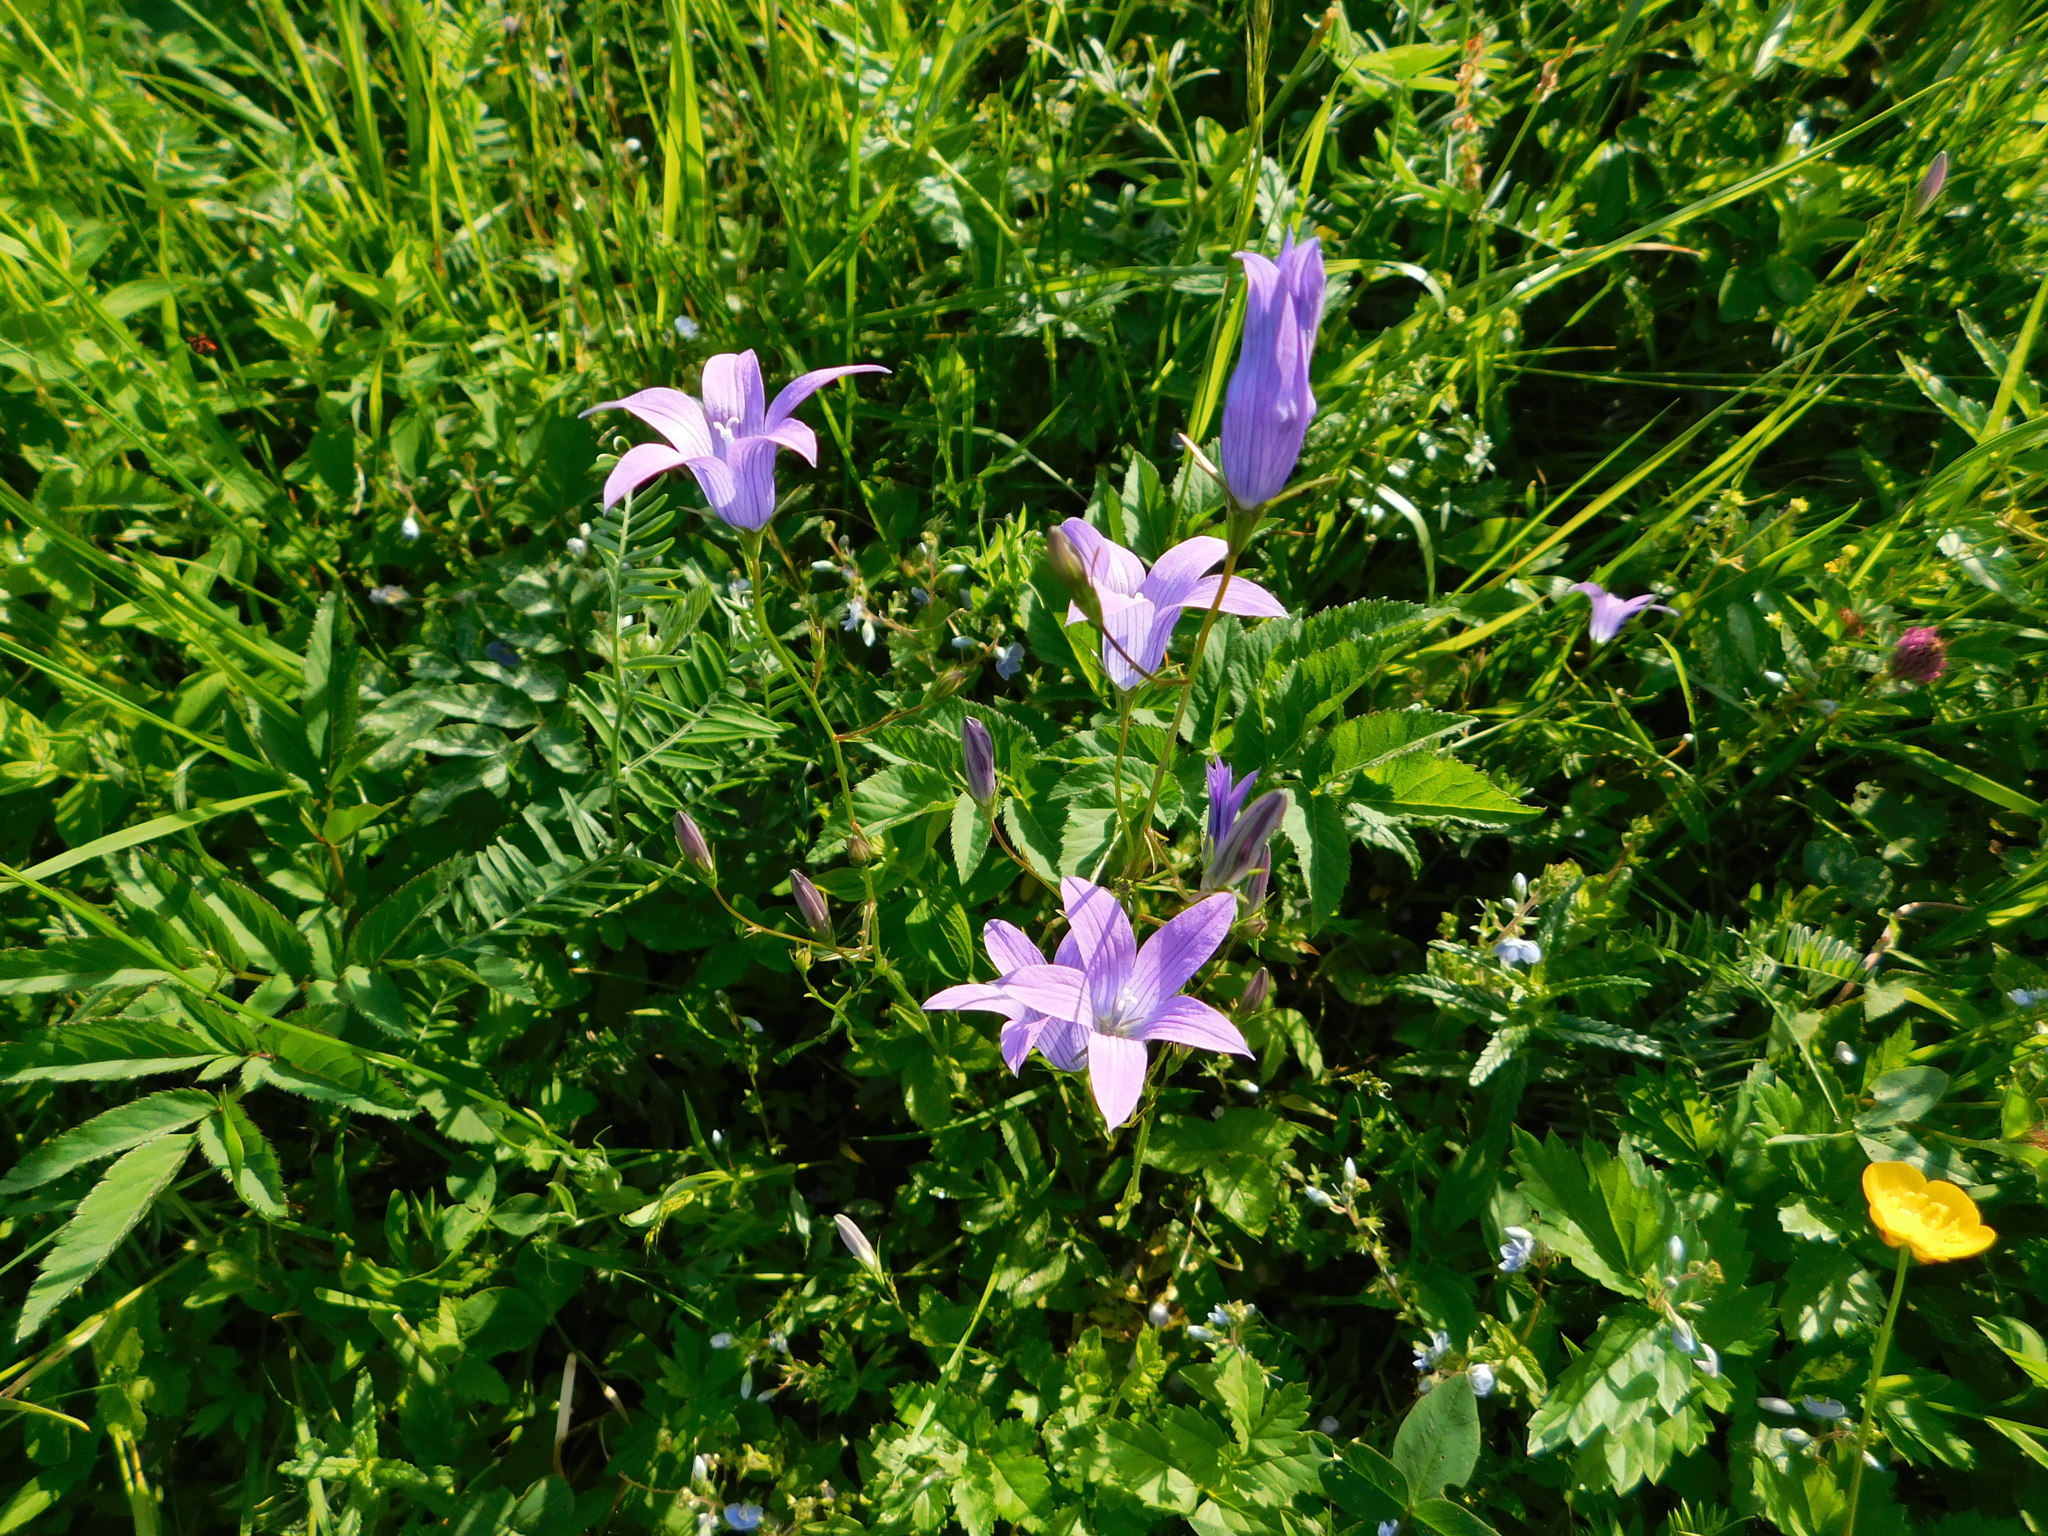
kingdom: Plantae
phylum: Tracheophyta
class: Magnoliopsida
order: Asterales
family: Campanulaceae
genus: Campanula
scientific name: Campanula patula
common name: Spreading bellflower
